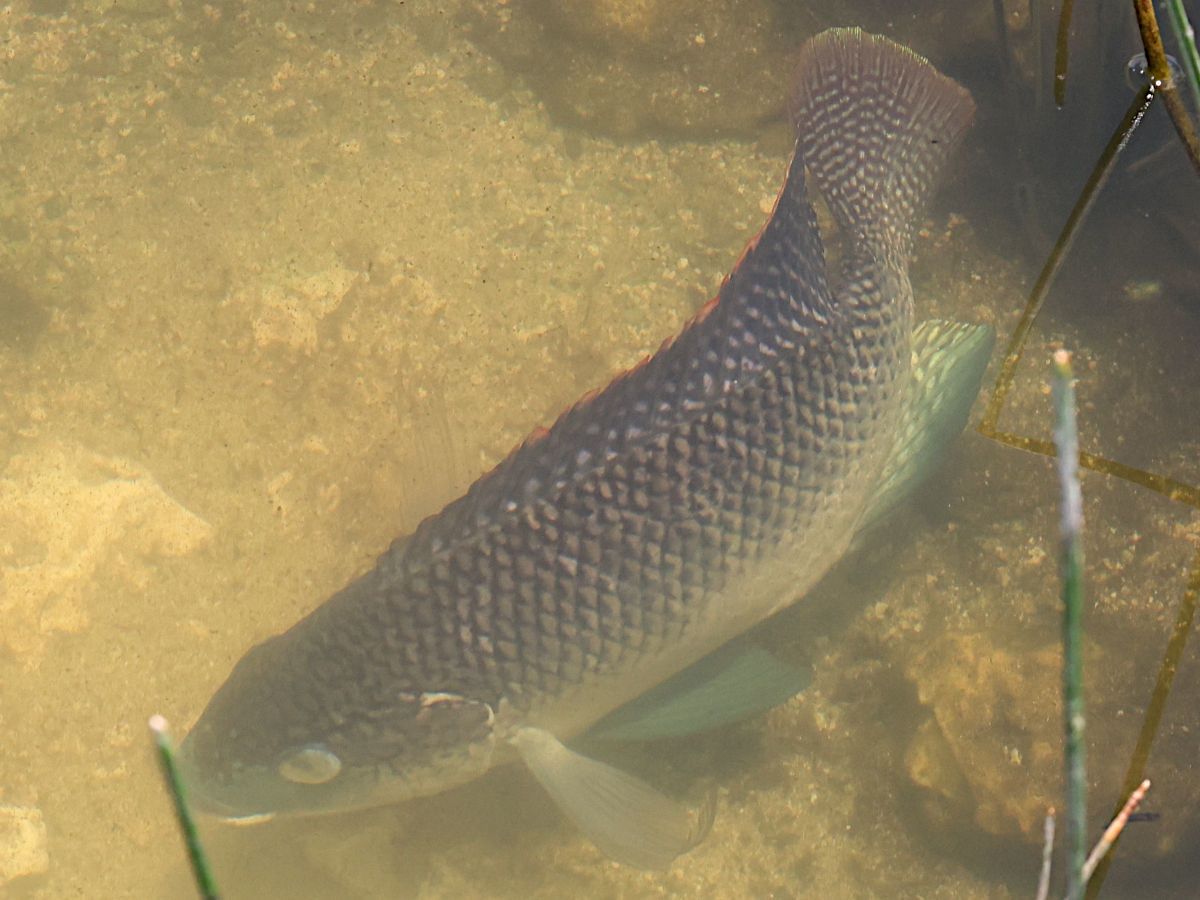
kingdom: Animalia
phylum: Chordata
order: Perciformes
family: Cichlidae
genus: Oreochromis
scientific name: Oreochromis aureus
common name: Blue tilapia
